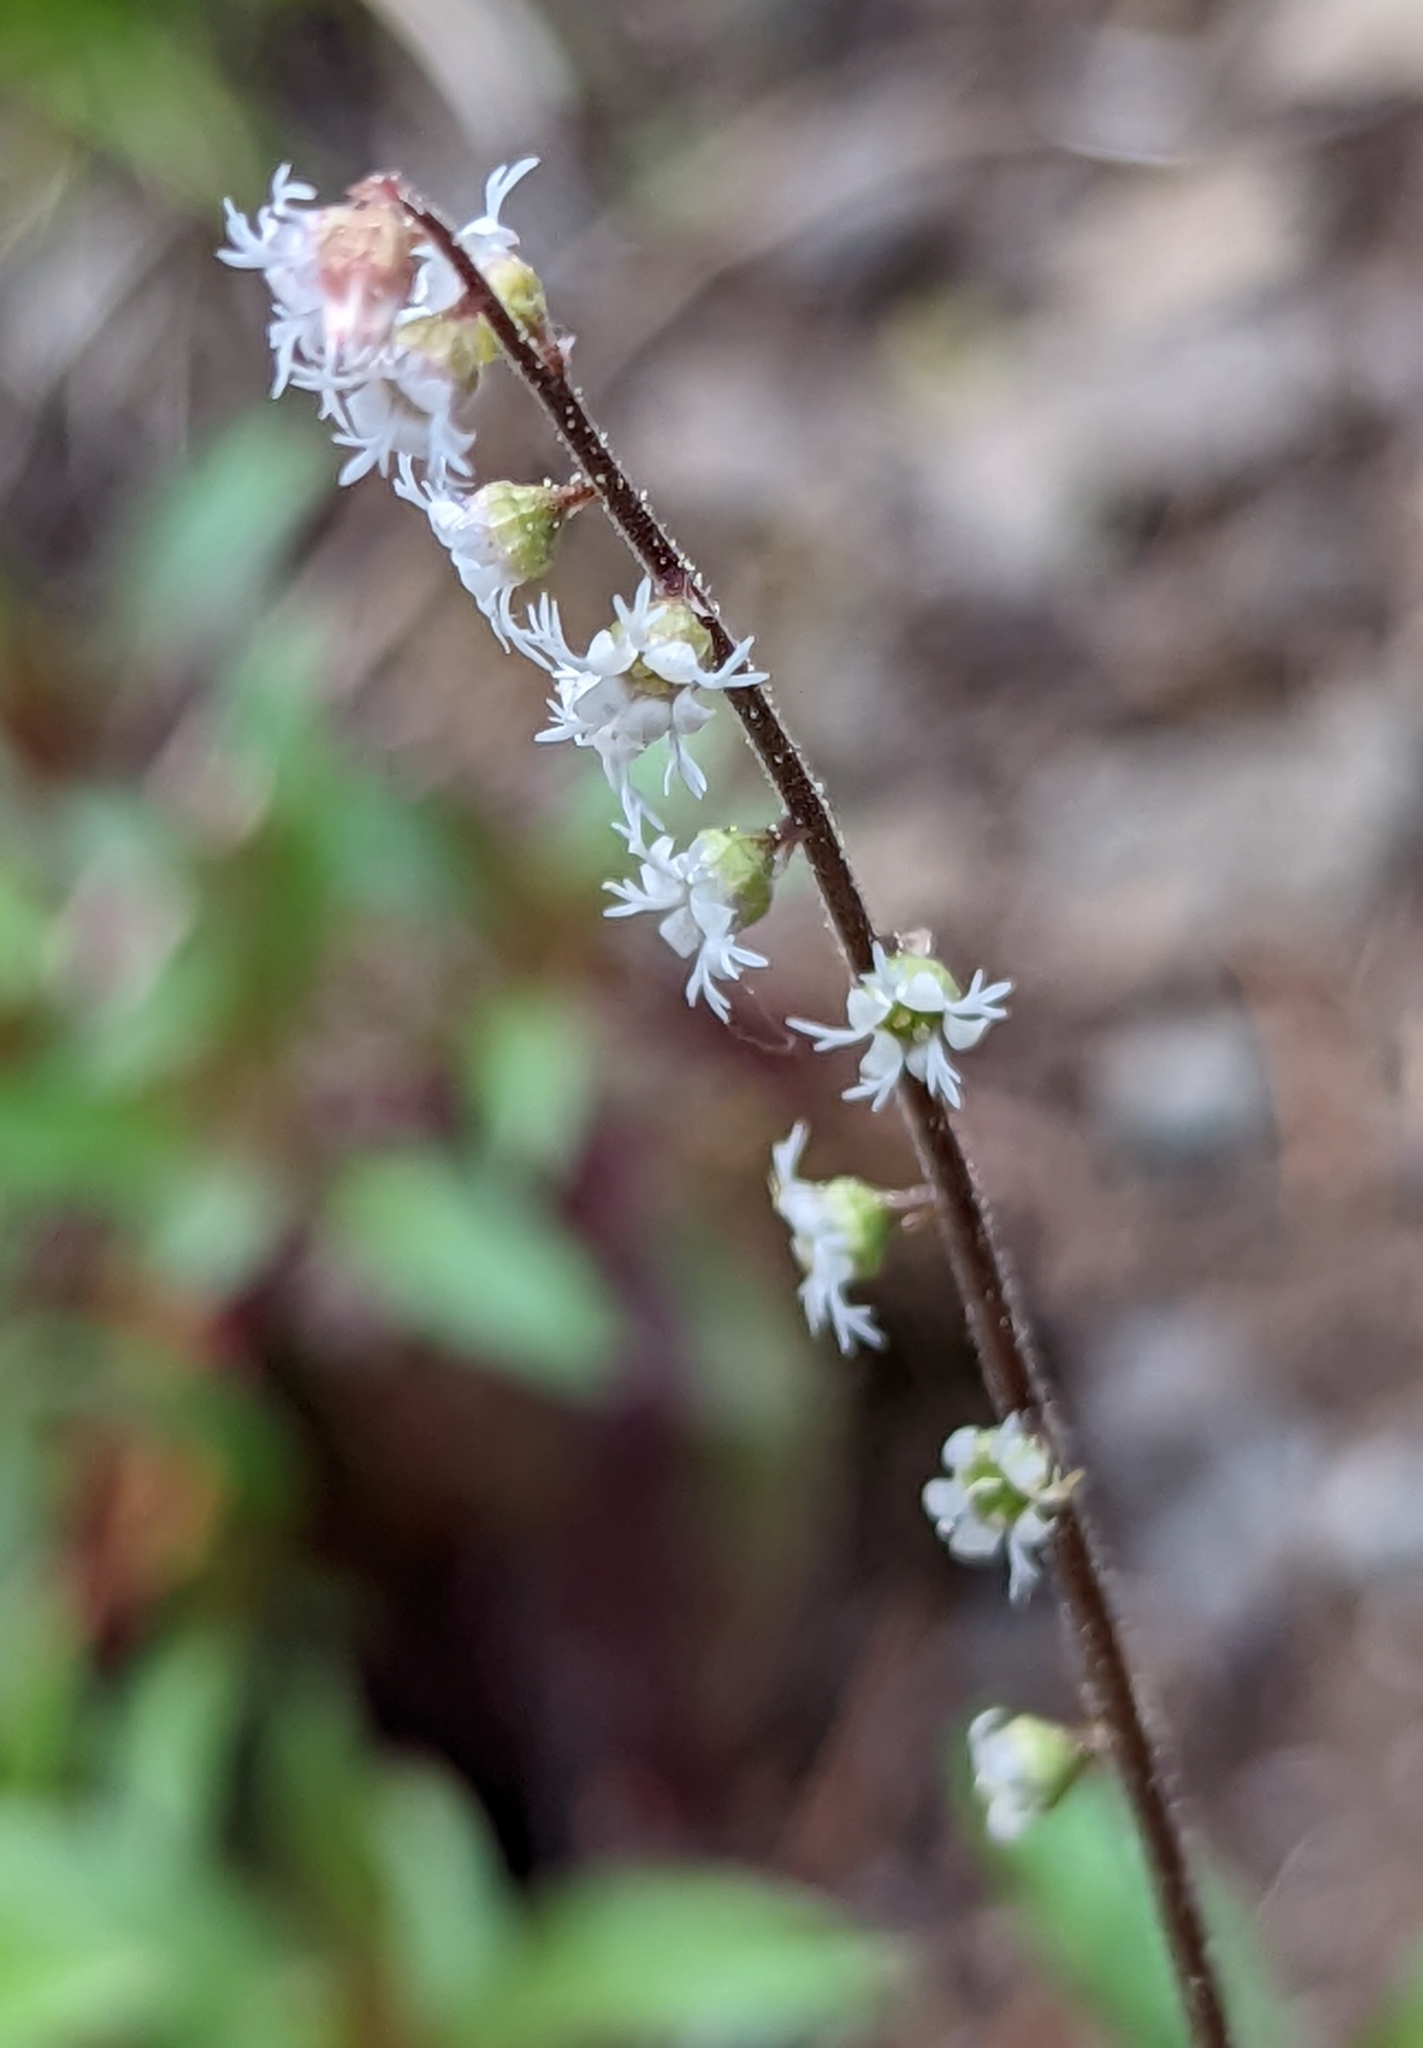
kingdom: Plantae
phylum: Tracheophyta
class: Magnoliopsida
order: Saxifragales
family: Saxifragaceae
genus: Ozomelis
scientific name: Ozomelis trifida
